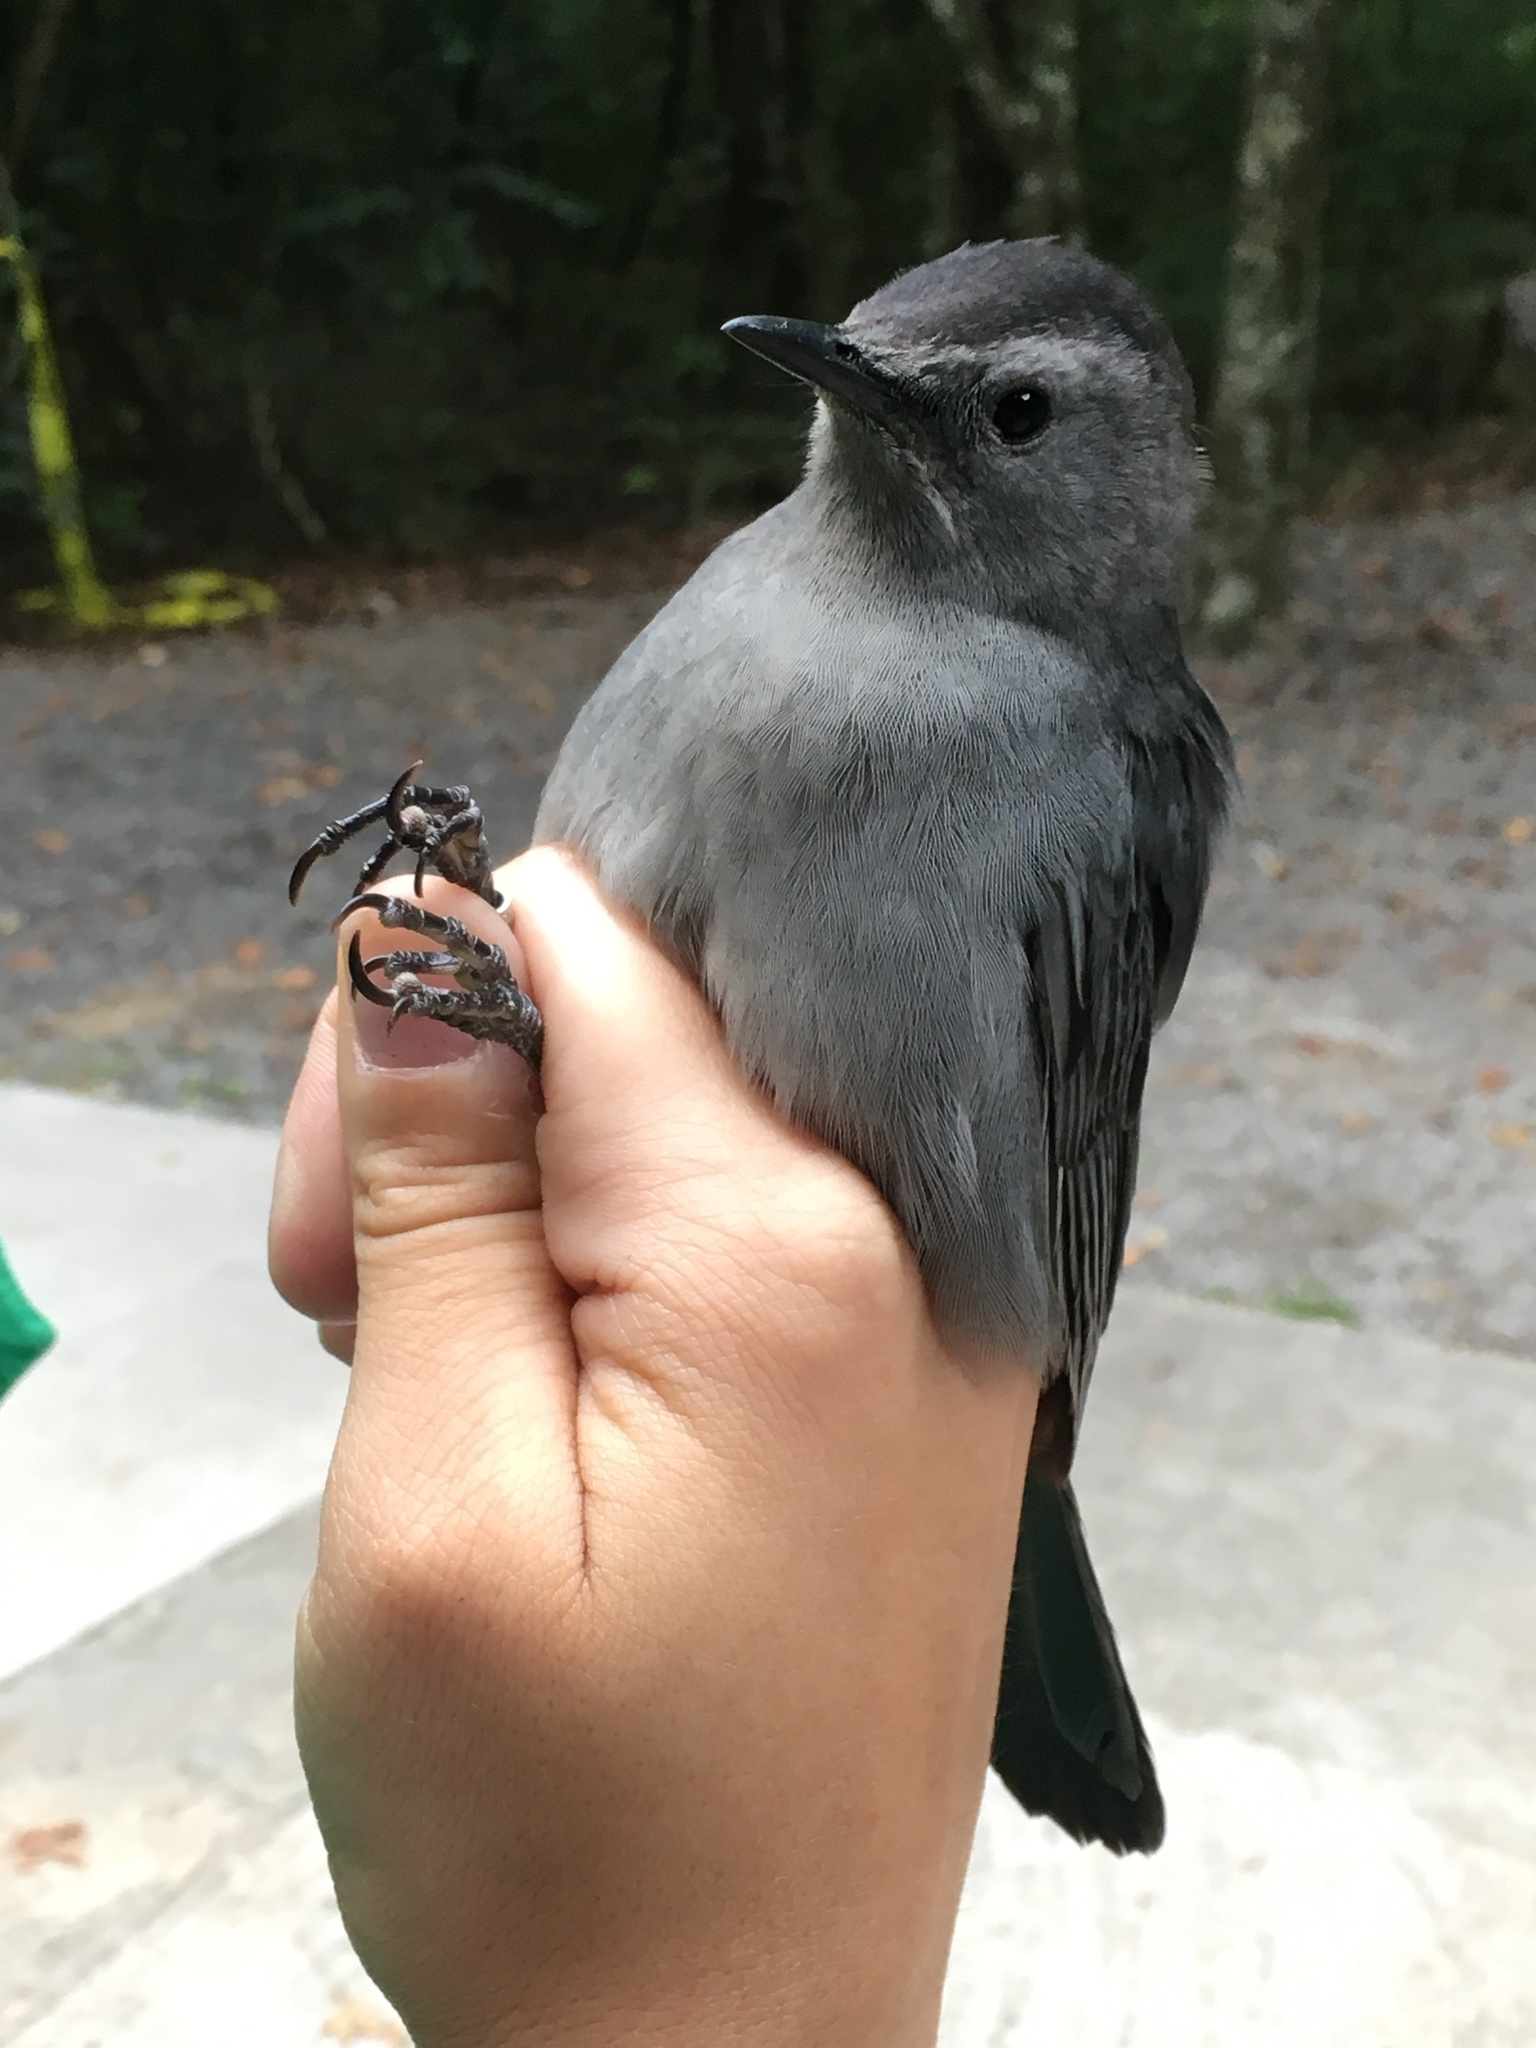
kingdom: Animalia
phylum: Chordata
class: Aves
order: Passeriformes
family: Mimidae
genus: Dumetella
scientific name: Dumetella carolinensis
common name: Gray catbird
